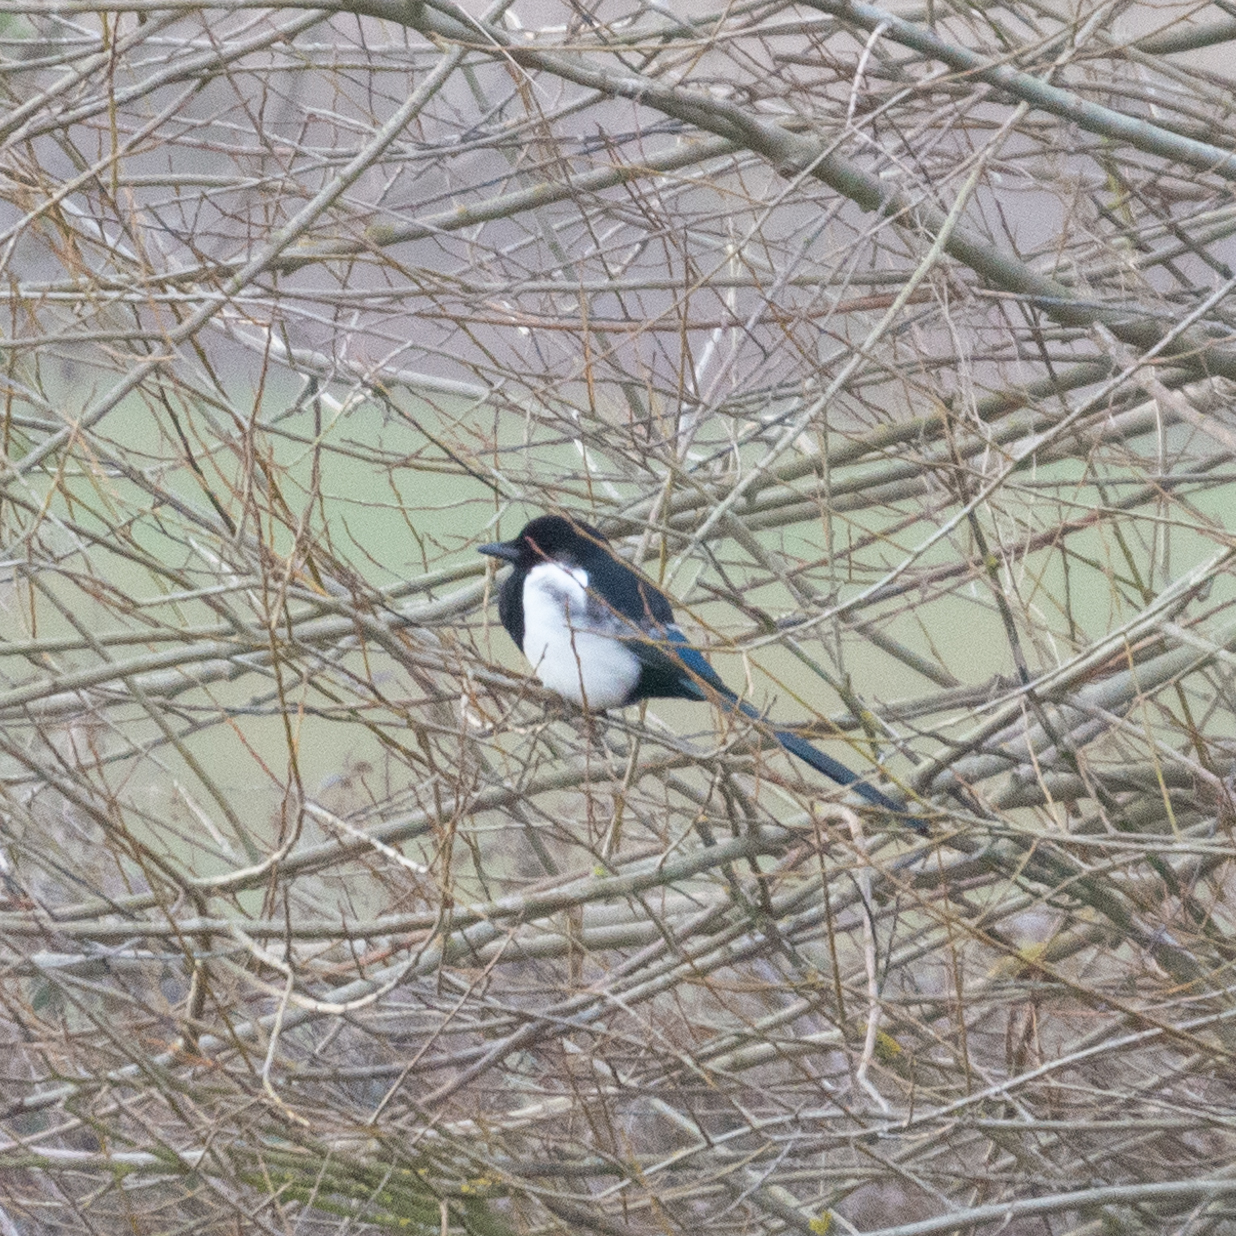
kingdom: Animalia
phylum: Chordata
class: Aves
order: Passeriformes
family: Corvidae
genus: Pica
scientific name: Pica pica
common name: Eurasian magpie
